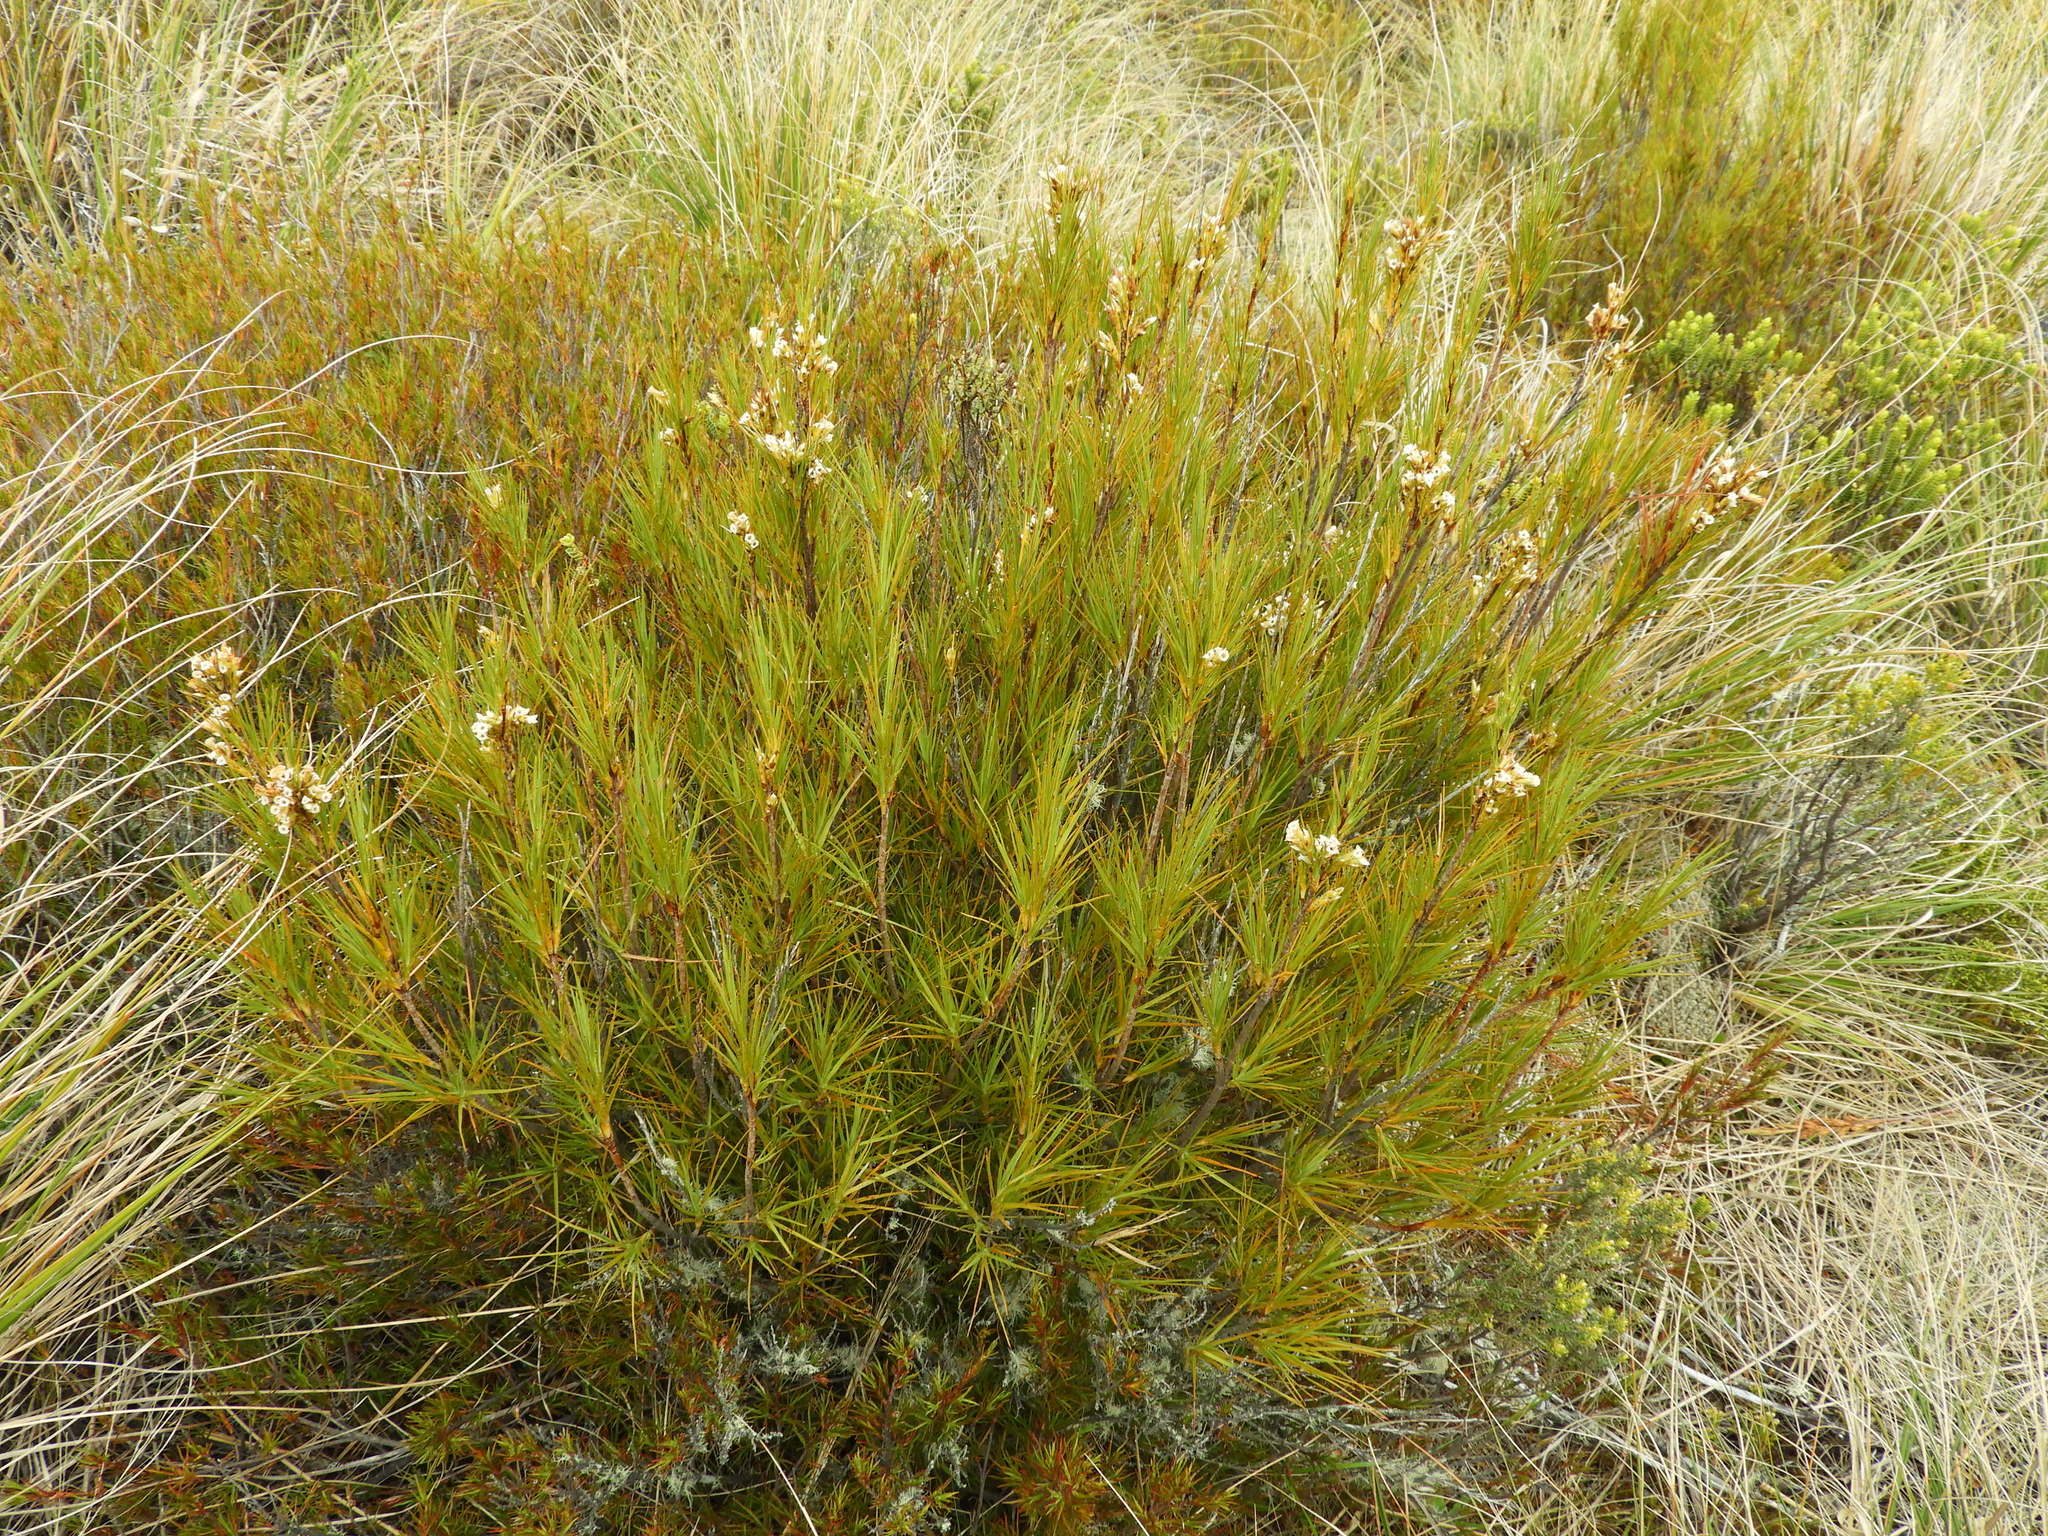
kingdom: Plantae
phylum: Tracheophyta
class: Magnoliopsida
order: Ericales
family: Ericaceae
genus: Dracophyllum
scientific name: Dracophyllum longifolium
